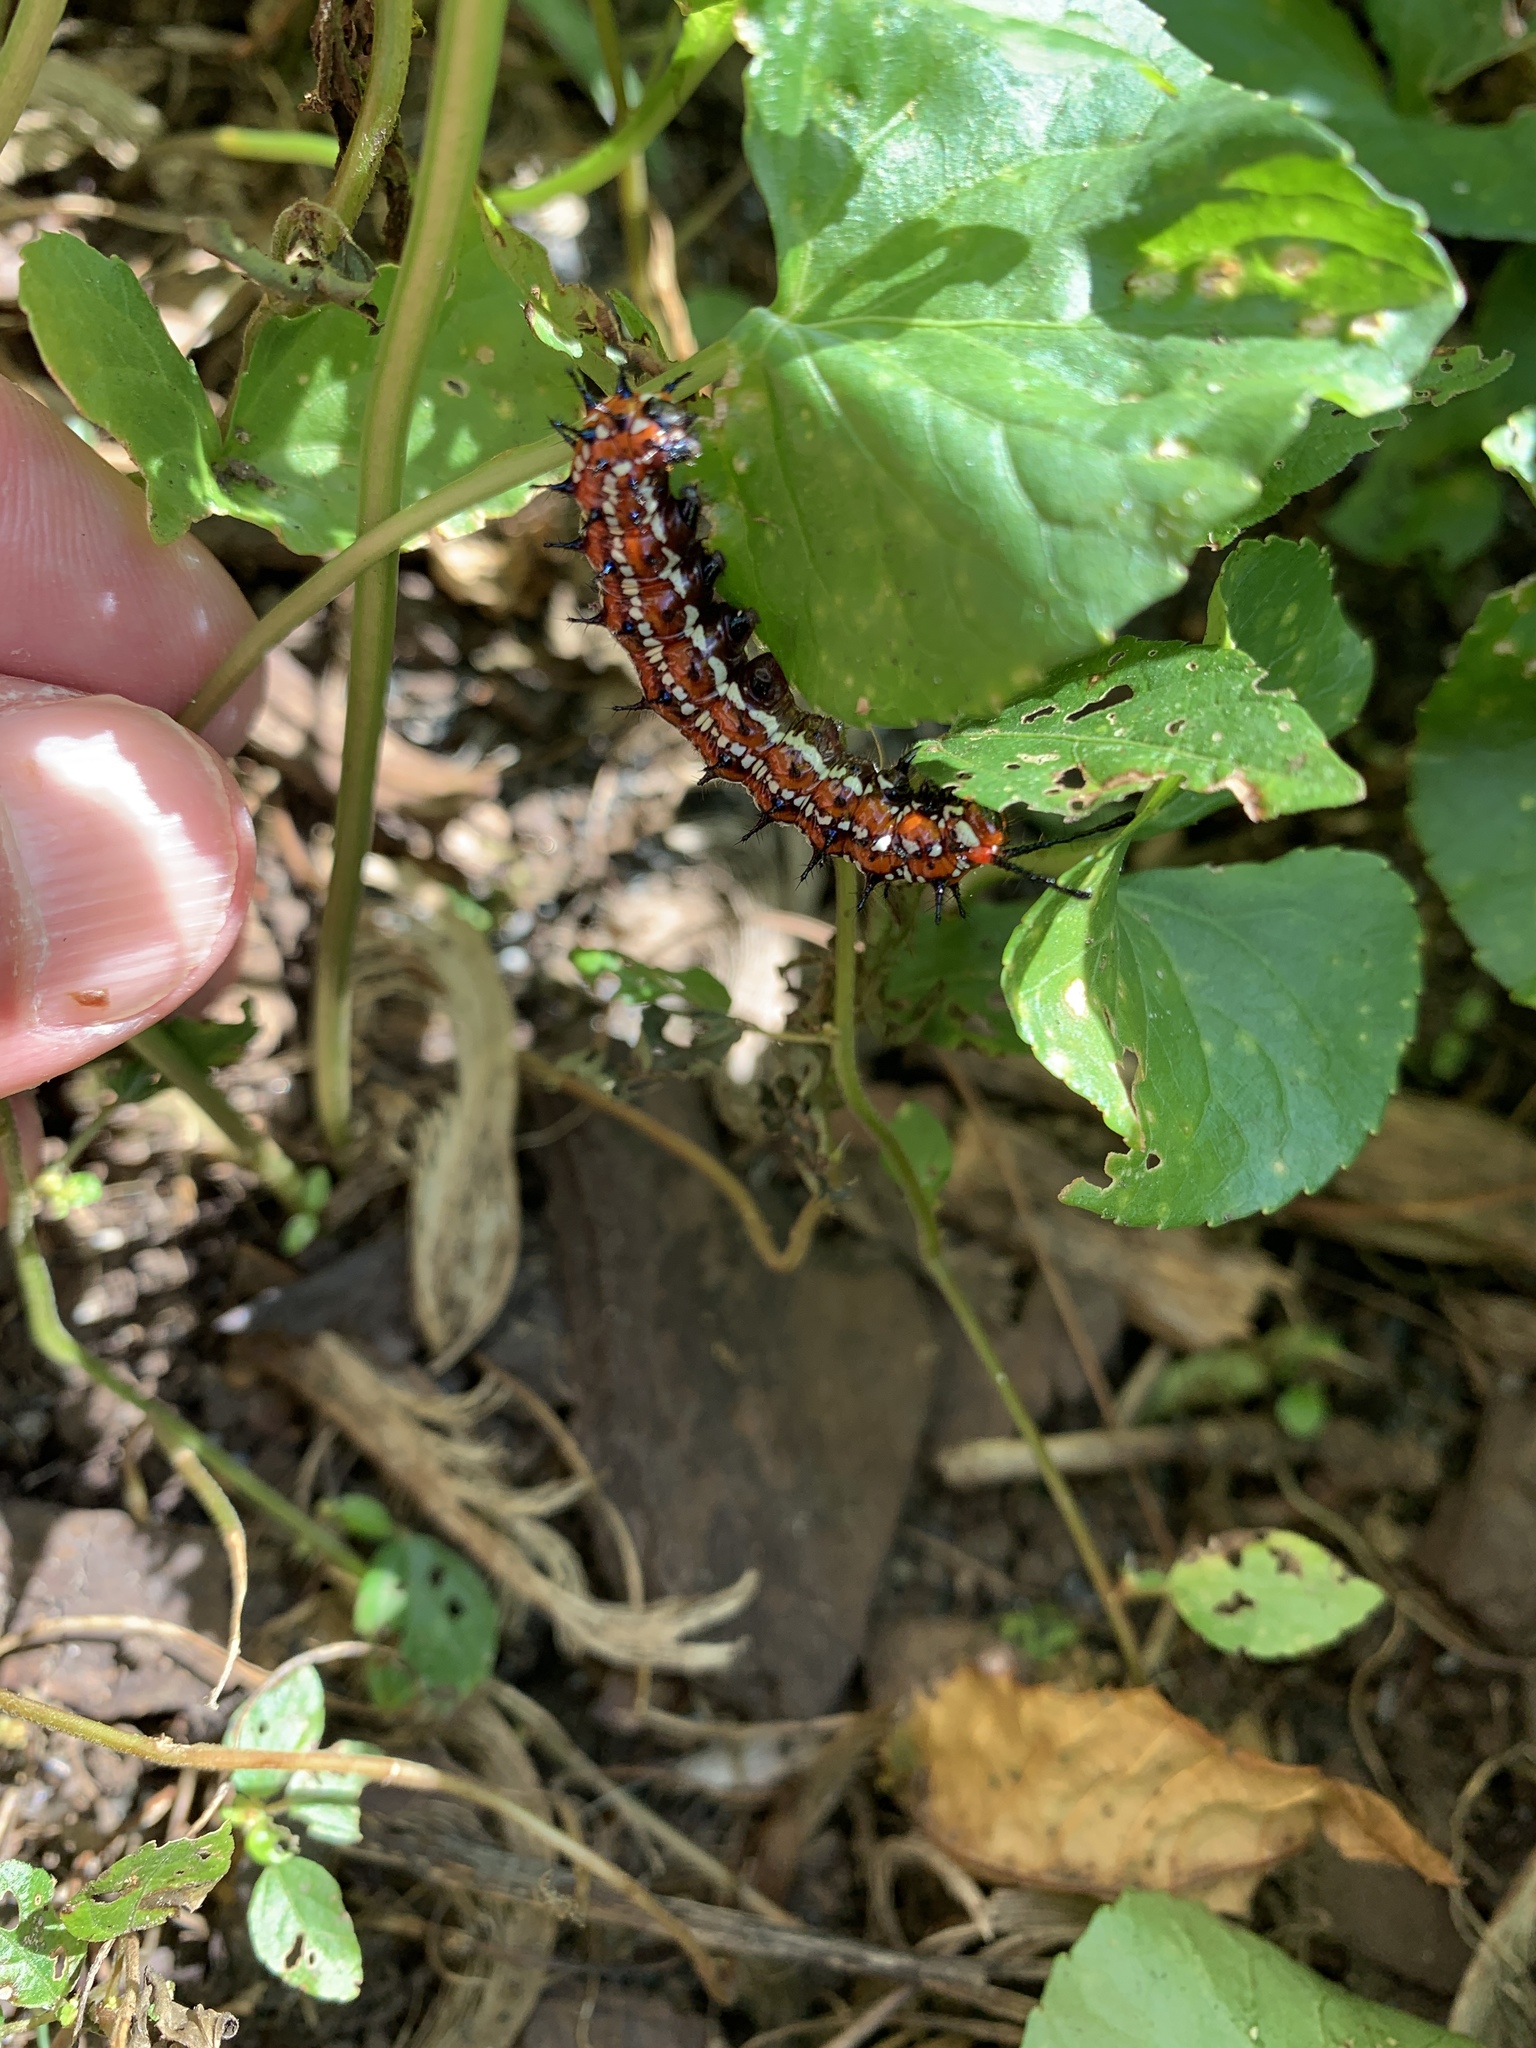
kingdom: Animalia
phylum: Arthropoda
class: Insecta
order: Lepidoptera
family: Nymphalidae
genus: Euptoieta
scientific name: Euptoieta claudia
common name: Variegated fritillary
